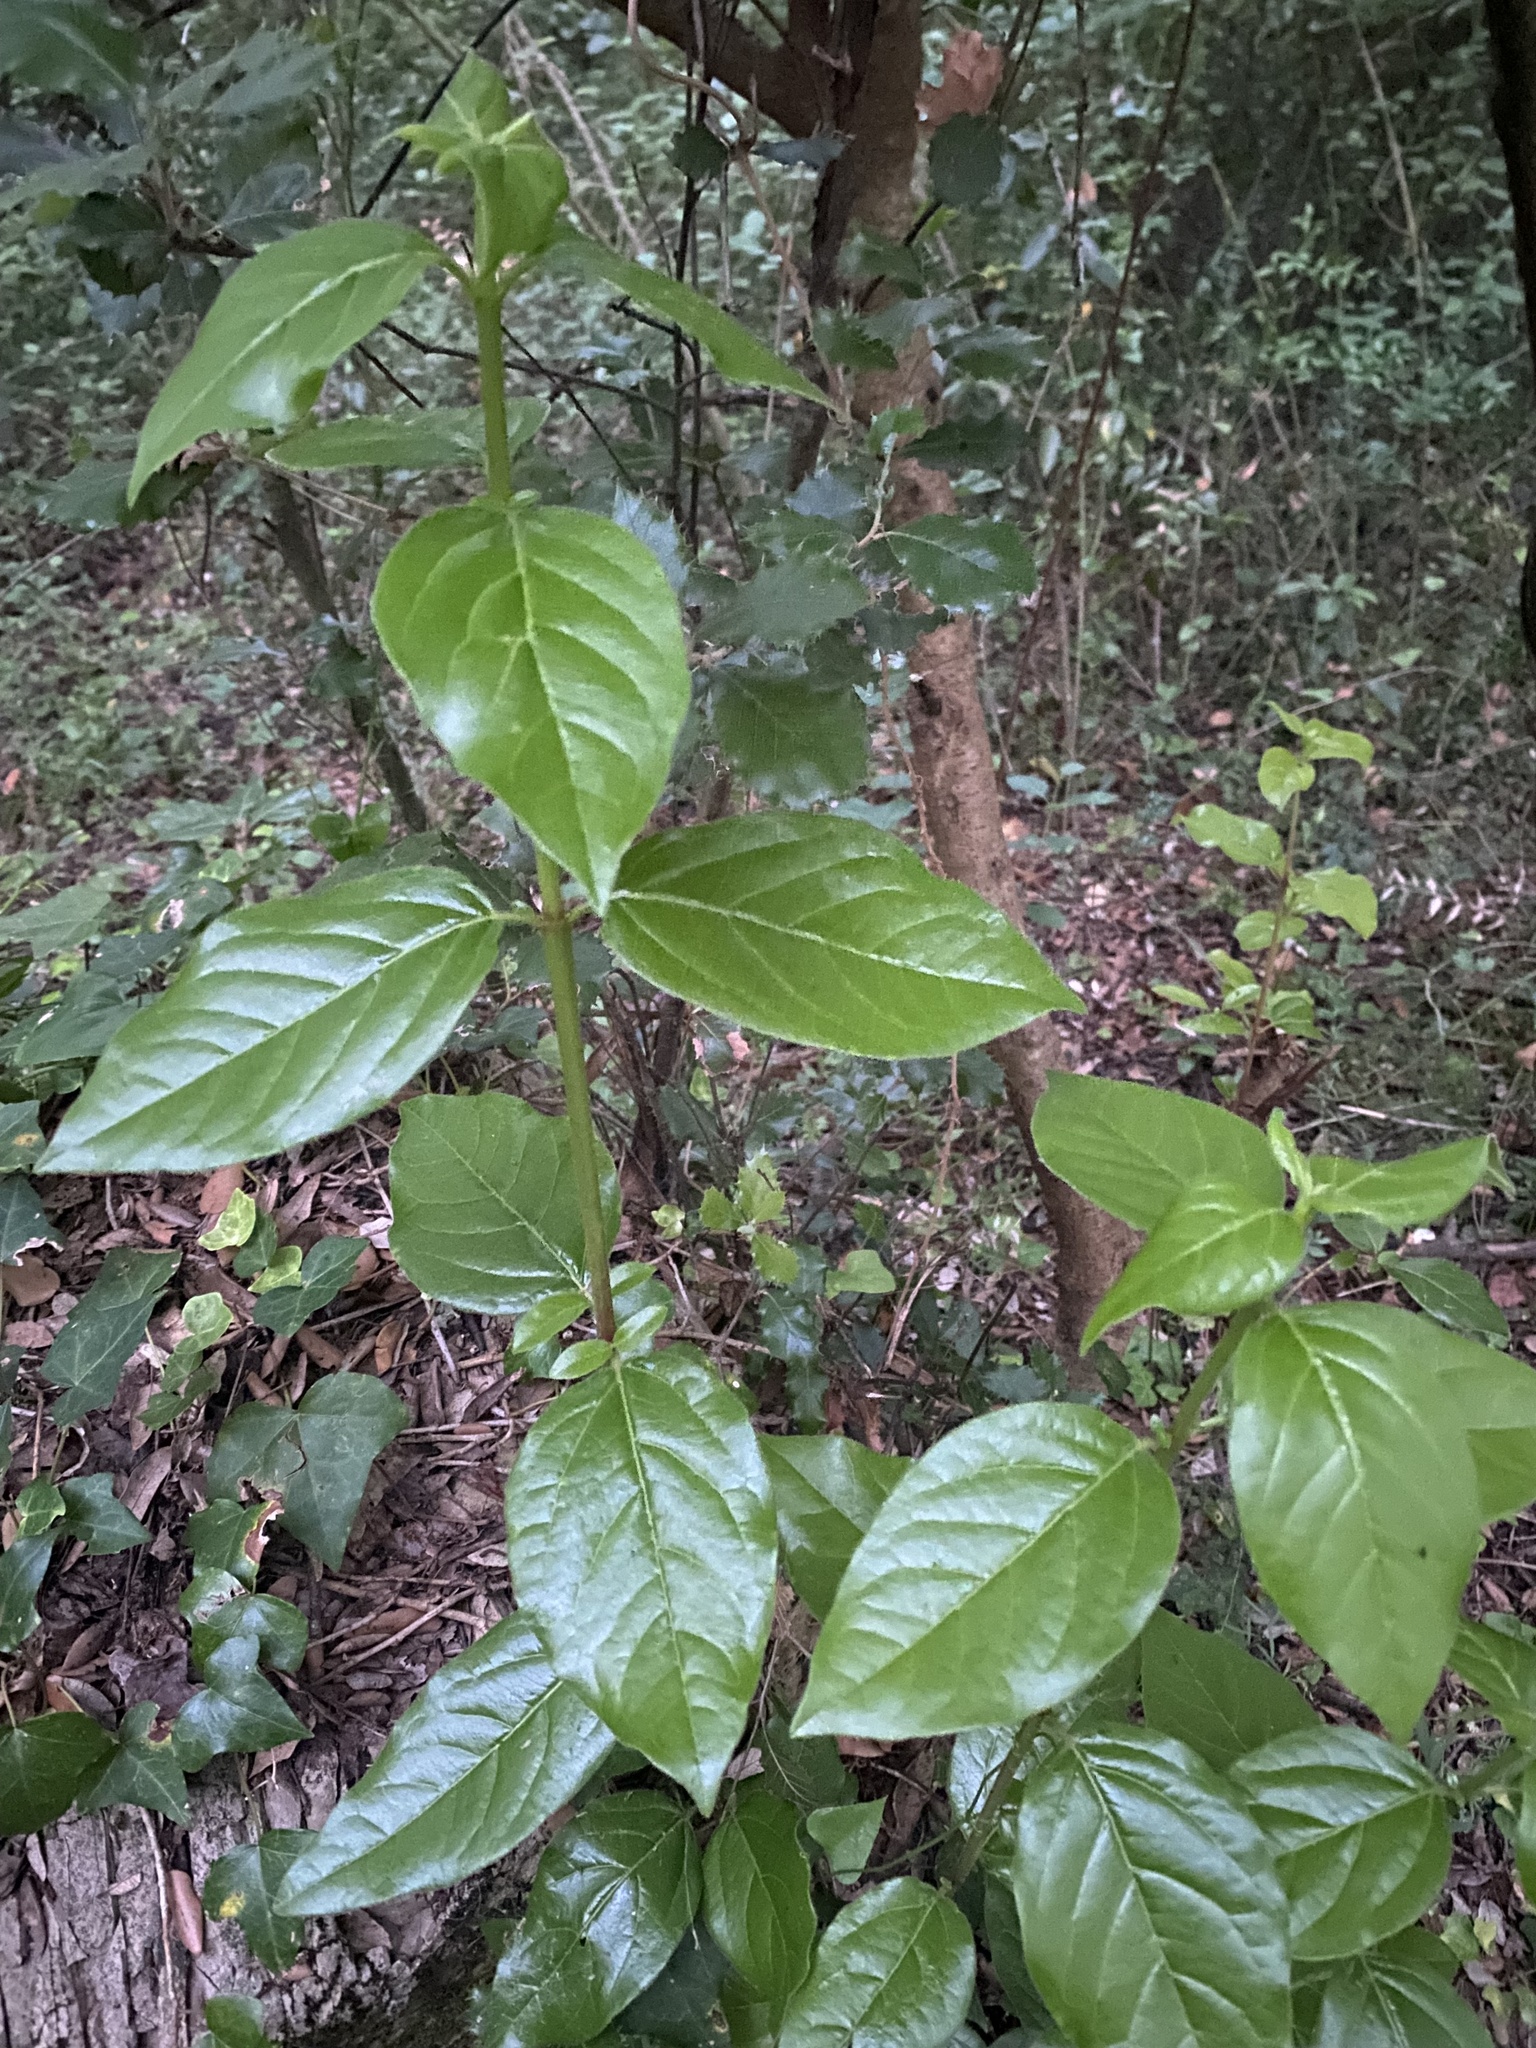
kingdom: Plantae
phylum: Tracheophyta
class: Magnoliopsida
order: Dipsacales
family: Viburnaceae
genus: Viburnum
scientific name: Viburnum tinus
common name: Laurustinus
